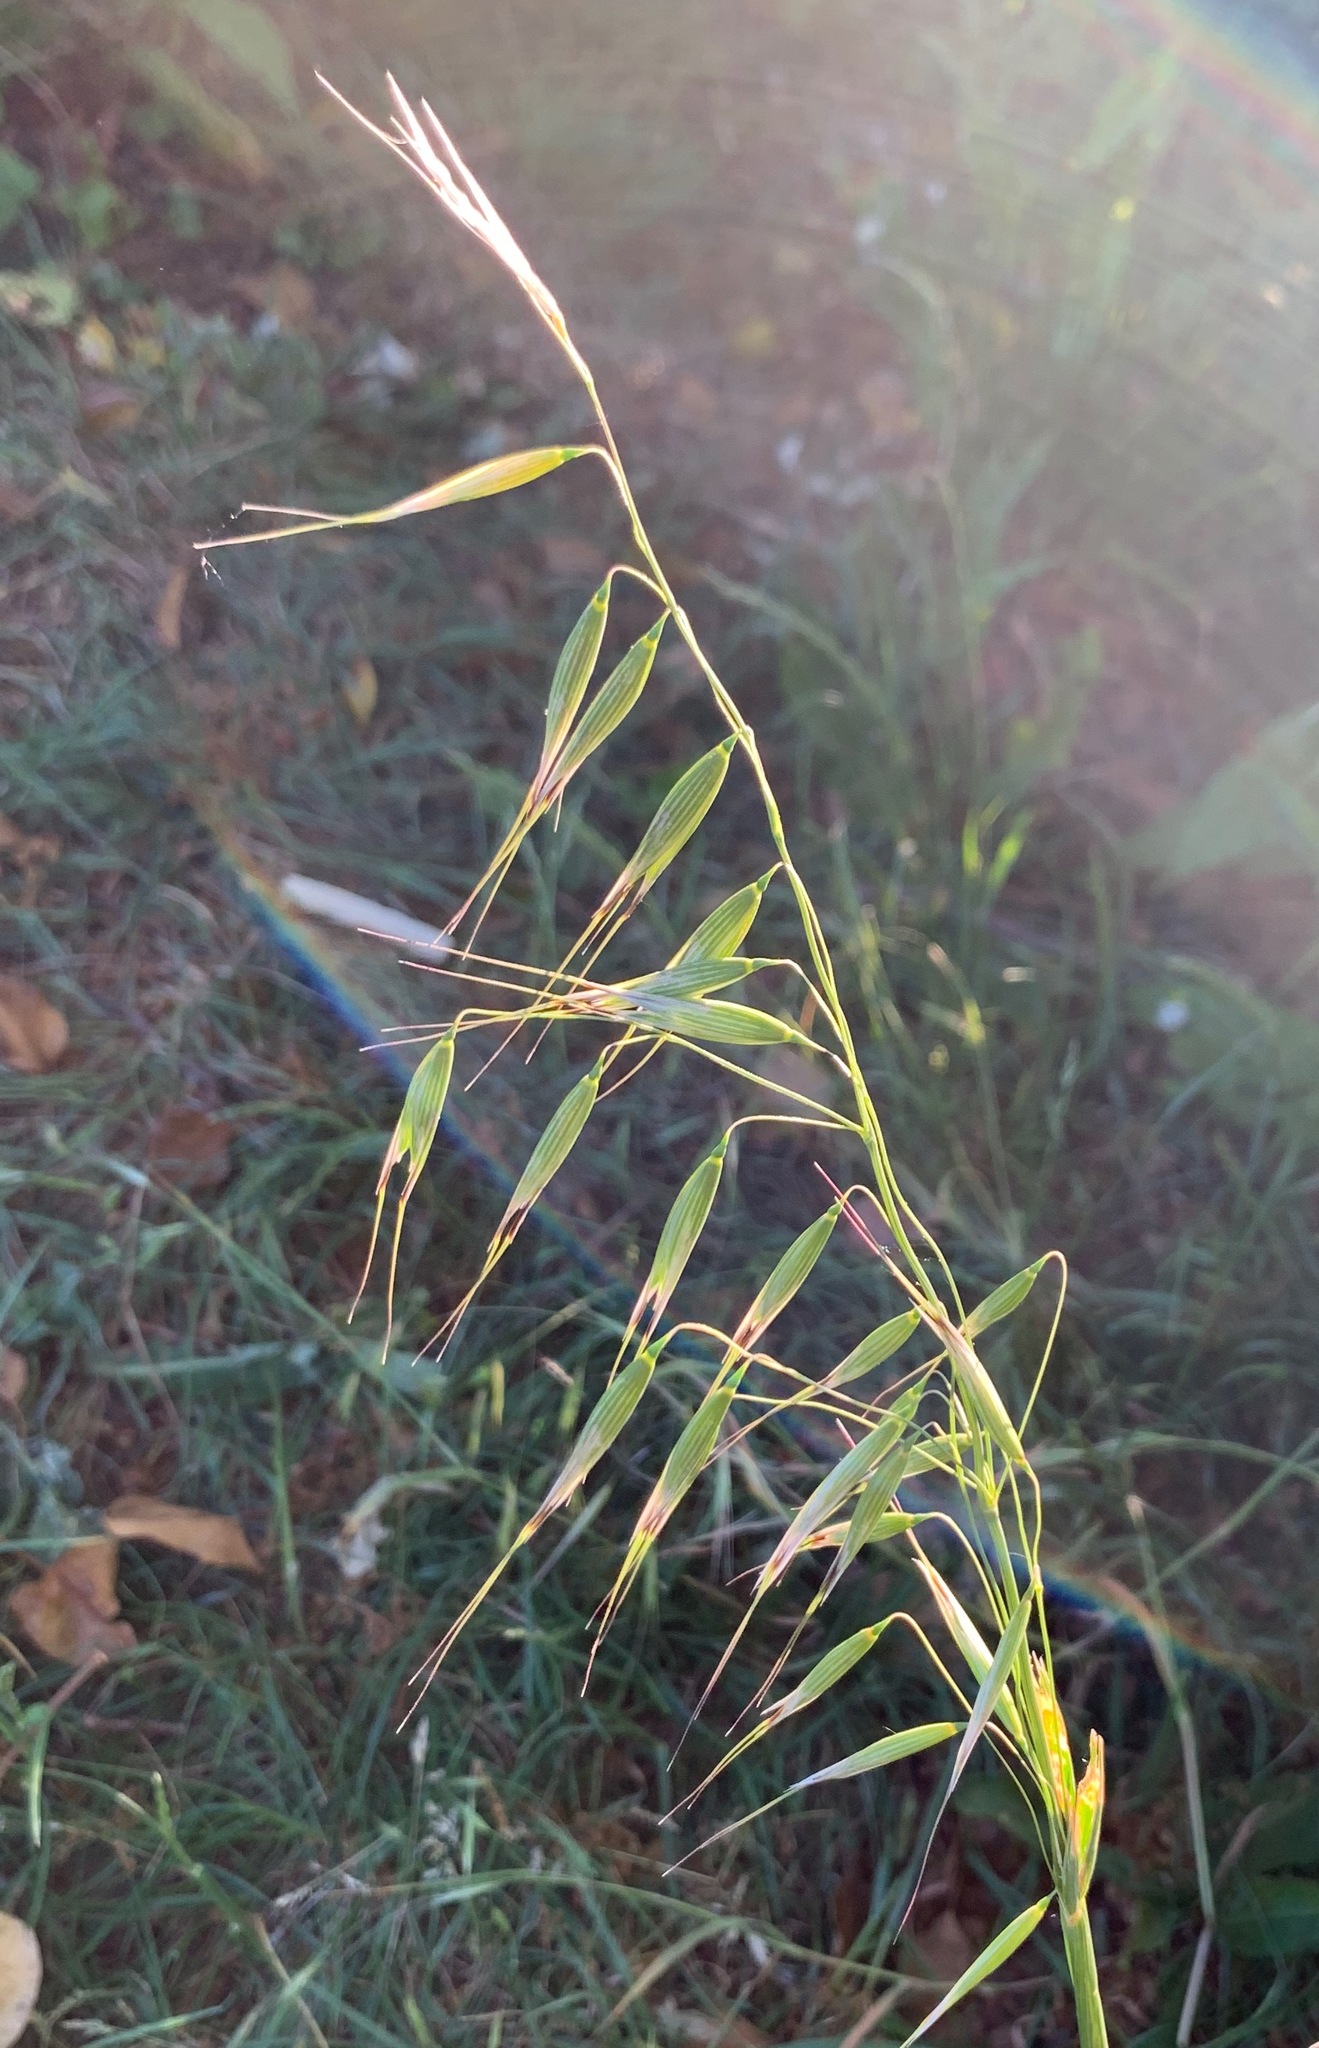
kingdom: Plantae
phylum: Tracheophyta
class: Liliopsida
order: Poales
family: Poaceae
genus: Avena
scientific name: Avena fatua
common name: Wild oat
